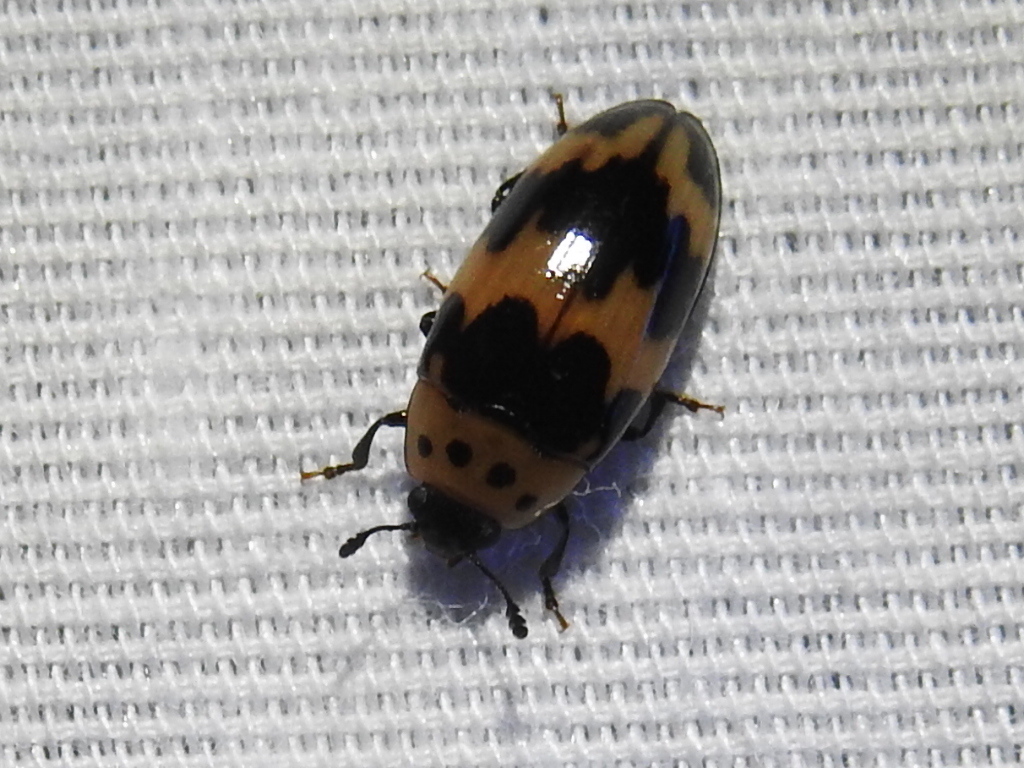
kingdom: Animalia
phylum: Arthropoda
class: Insecta
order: Coleoptera
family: Erotylidae
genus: Ischyrus
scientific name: Ischyrus quadripunctatus
